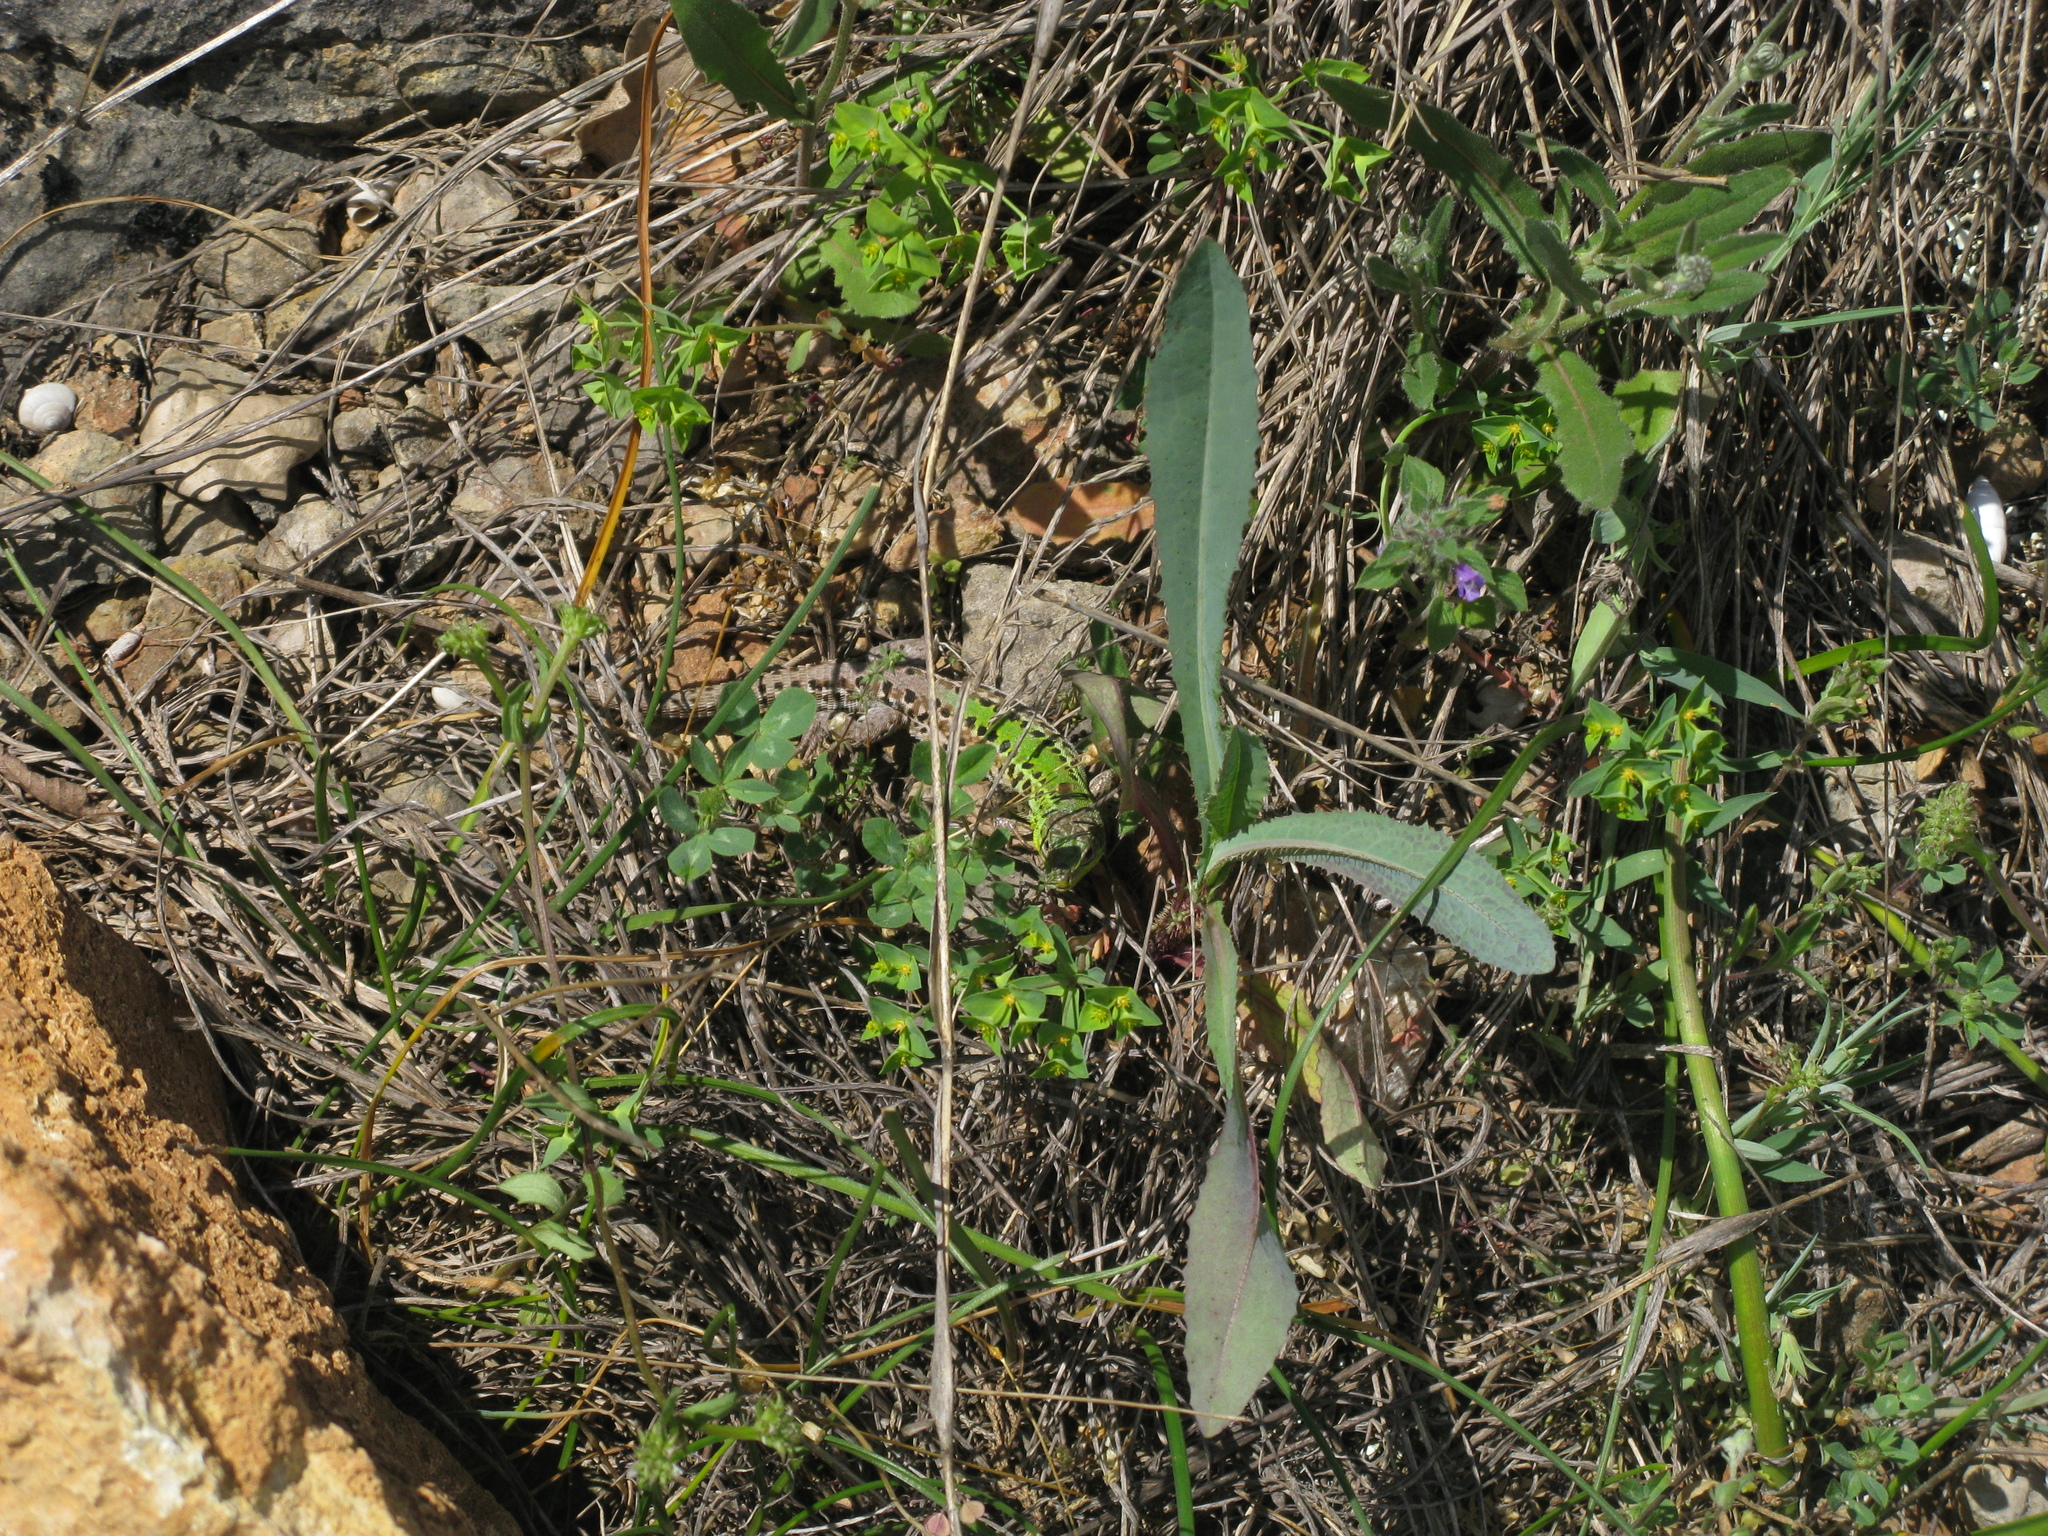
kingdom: Plantae
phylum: Tracheophyta
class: Magnoliopsida
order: Lamiales
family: Lamiaceae
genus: Clinopodium
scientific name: Clinopodium acinos
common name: Basil thyme
